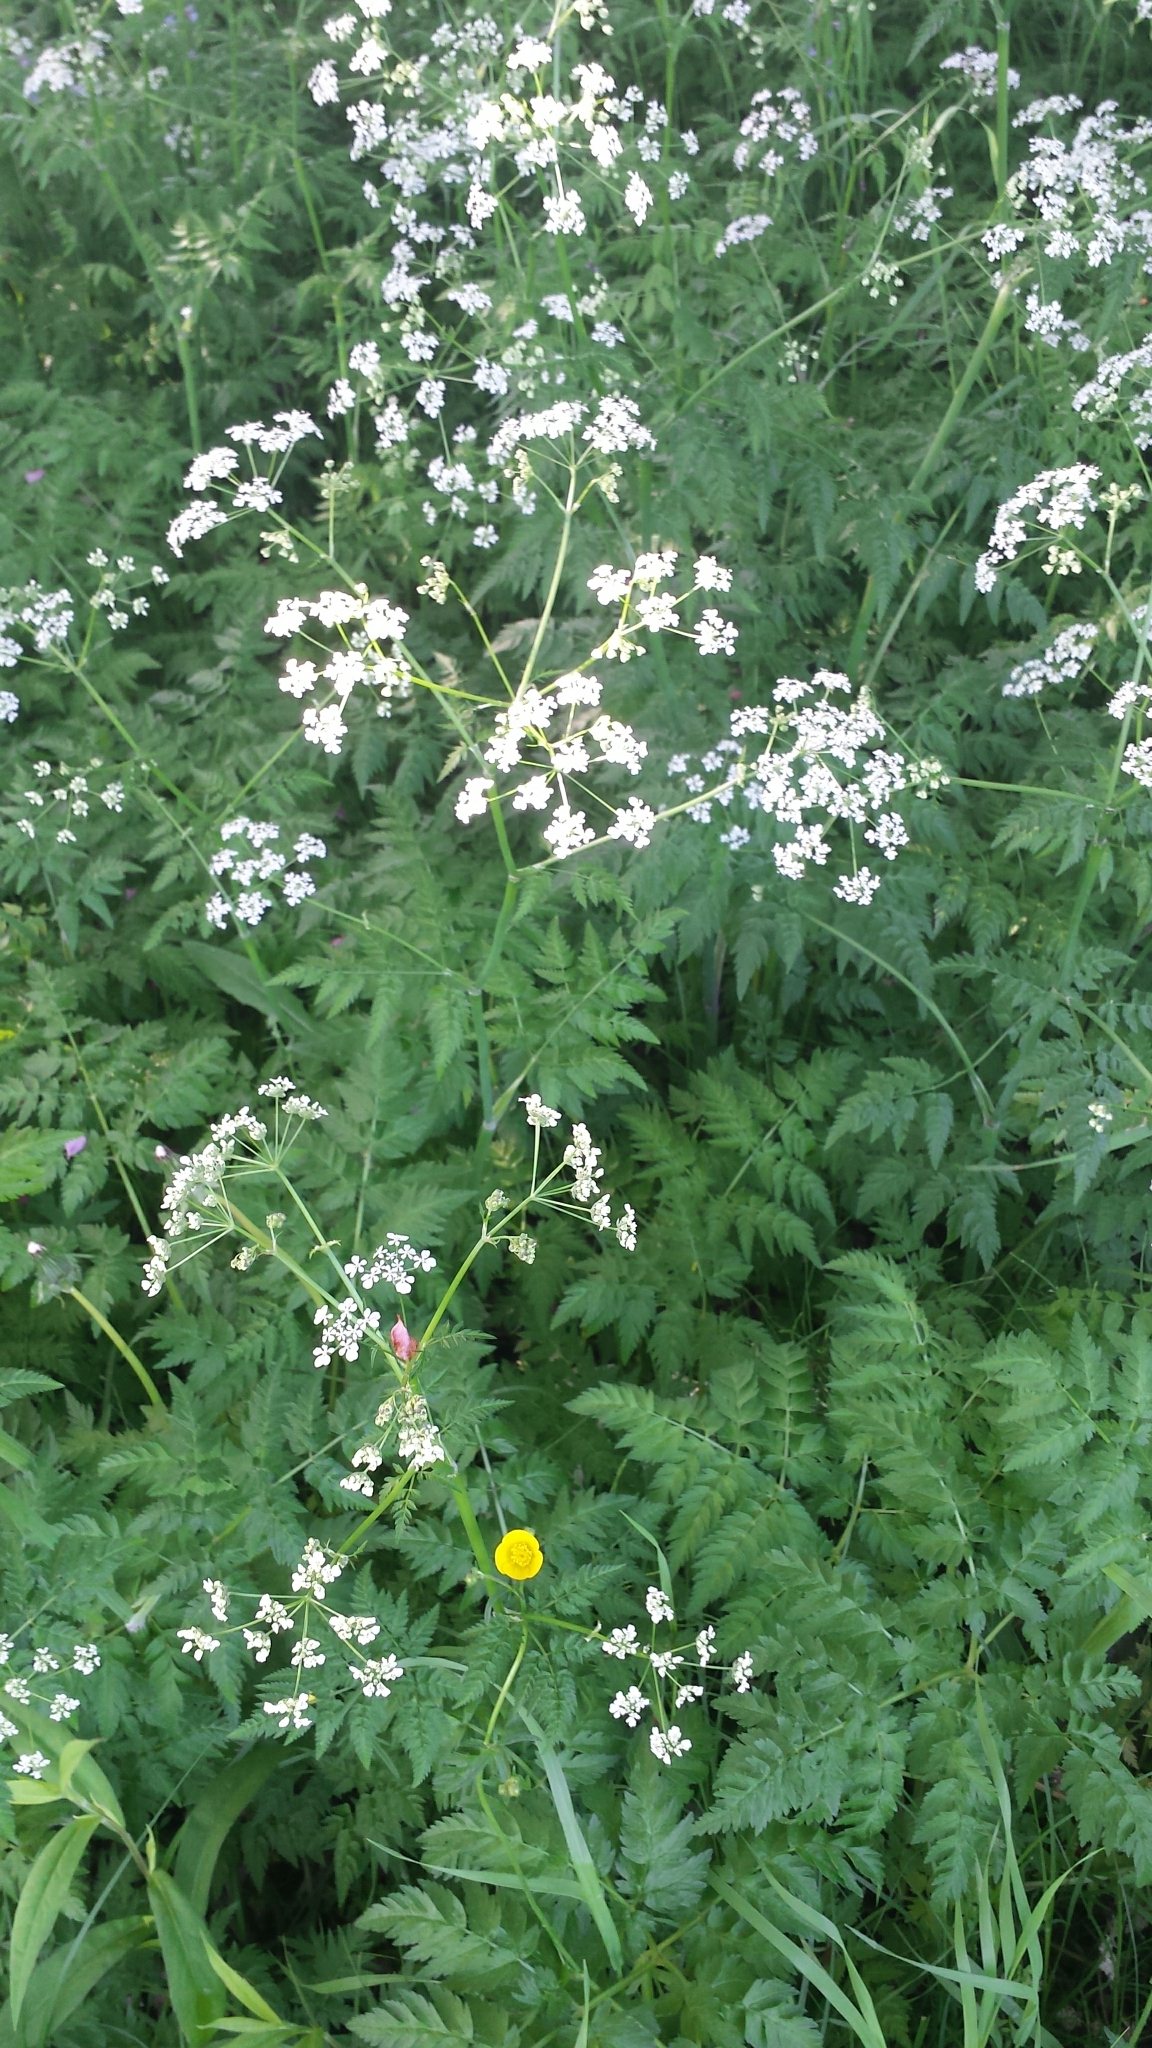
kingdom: Plantae
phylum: Tracheophyta
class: Magnoliopsida
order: Apiales
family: Apiaceae
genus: Anthriscus
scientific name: Anthriscus sylvestris
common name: Cow parsley
